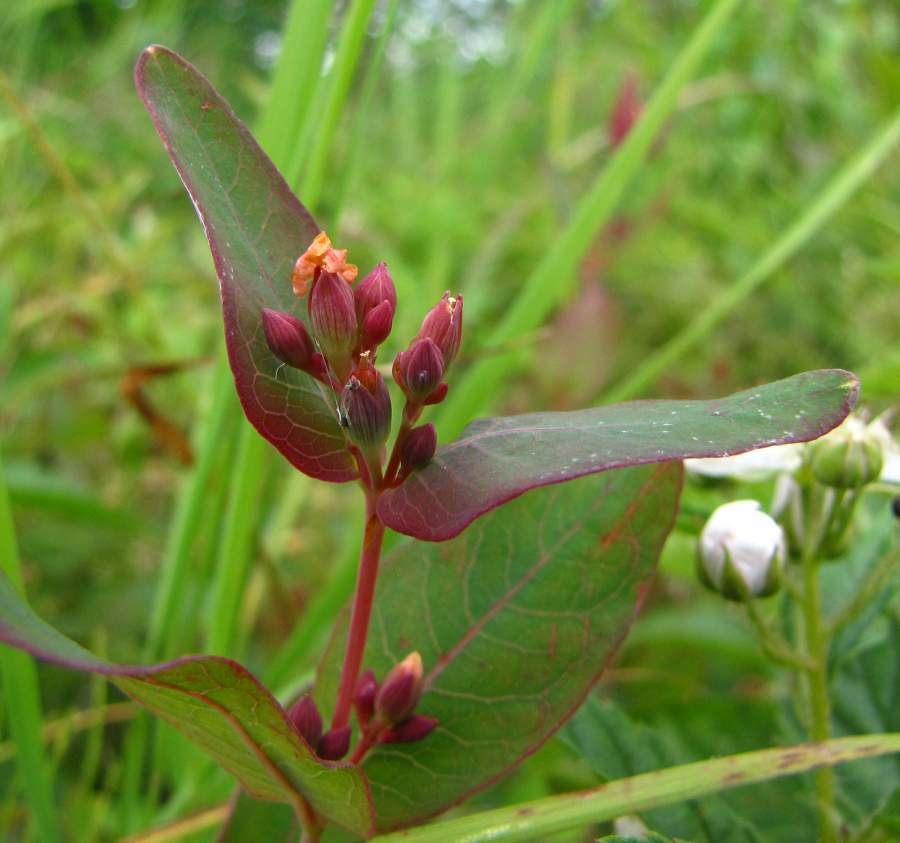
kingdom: Plantae
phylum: Tracheophyta
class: Magnoliopsida
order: Malpighiales
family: Hypericaceae
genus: Triadenum
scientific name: Triadenum fraseri
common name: Fraser's marsh st. johnswort
